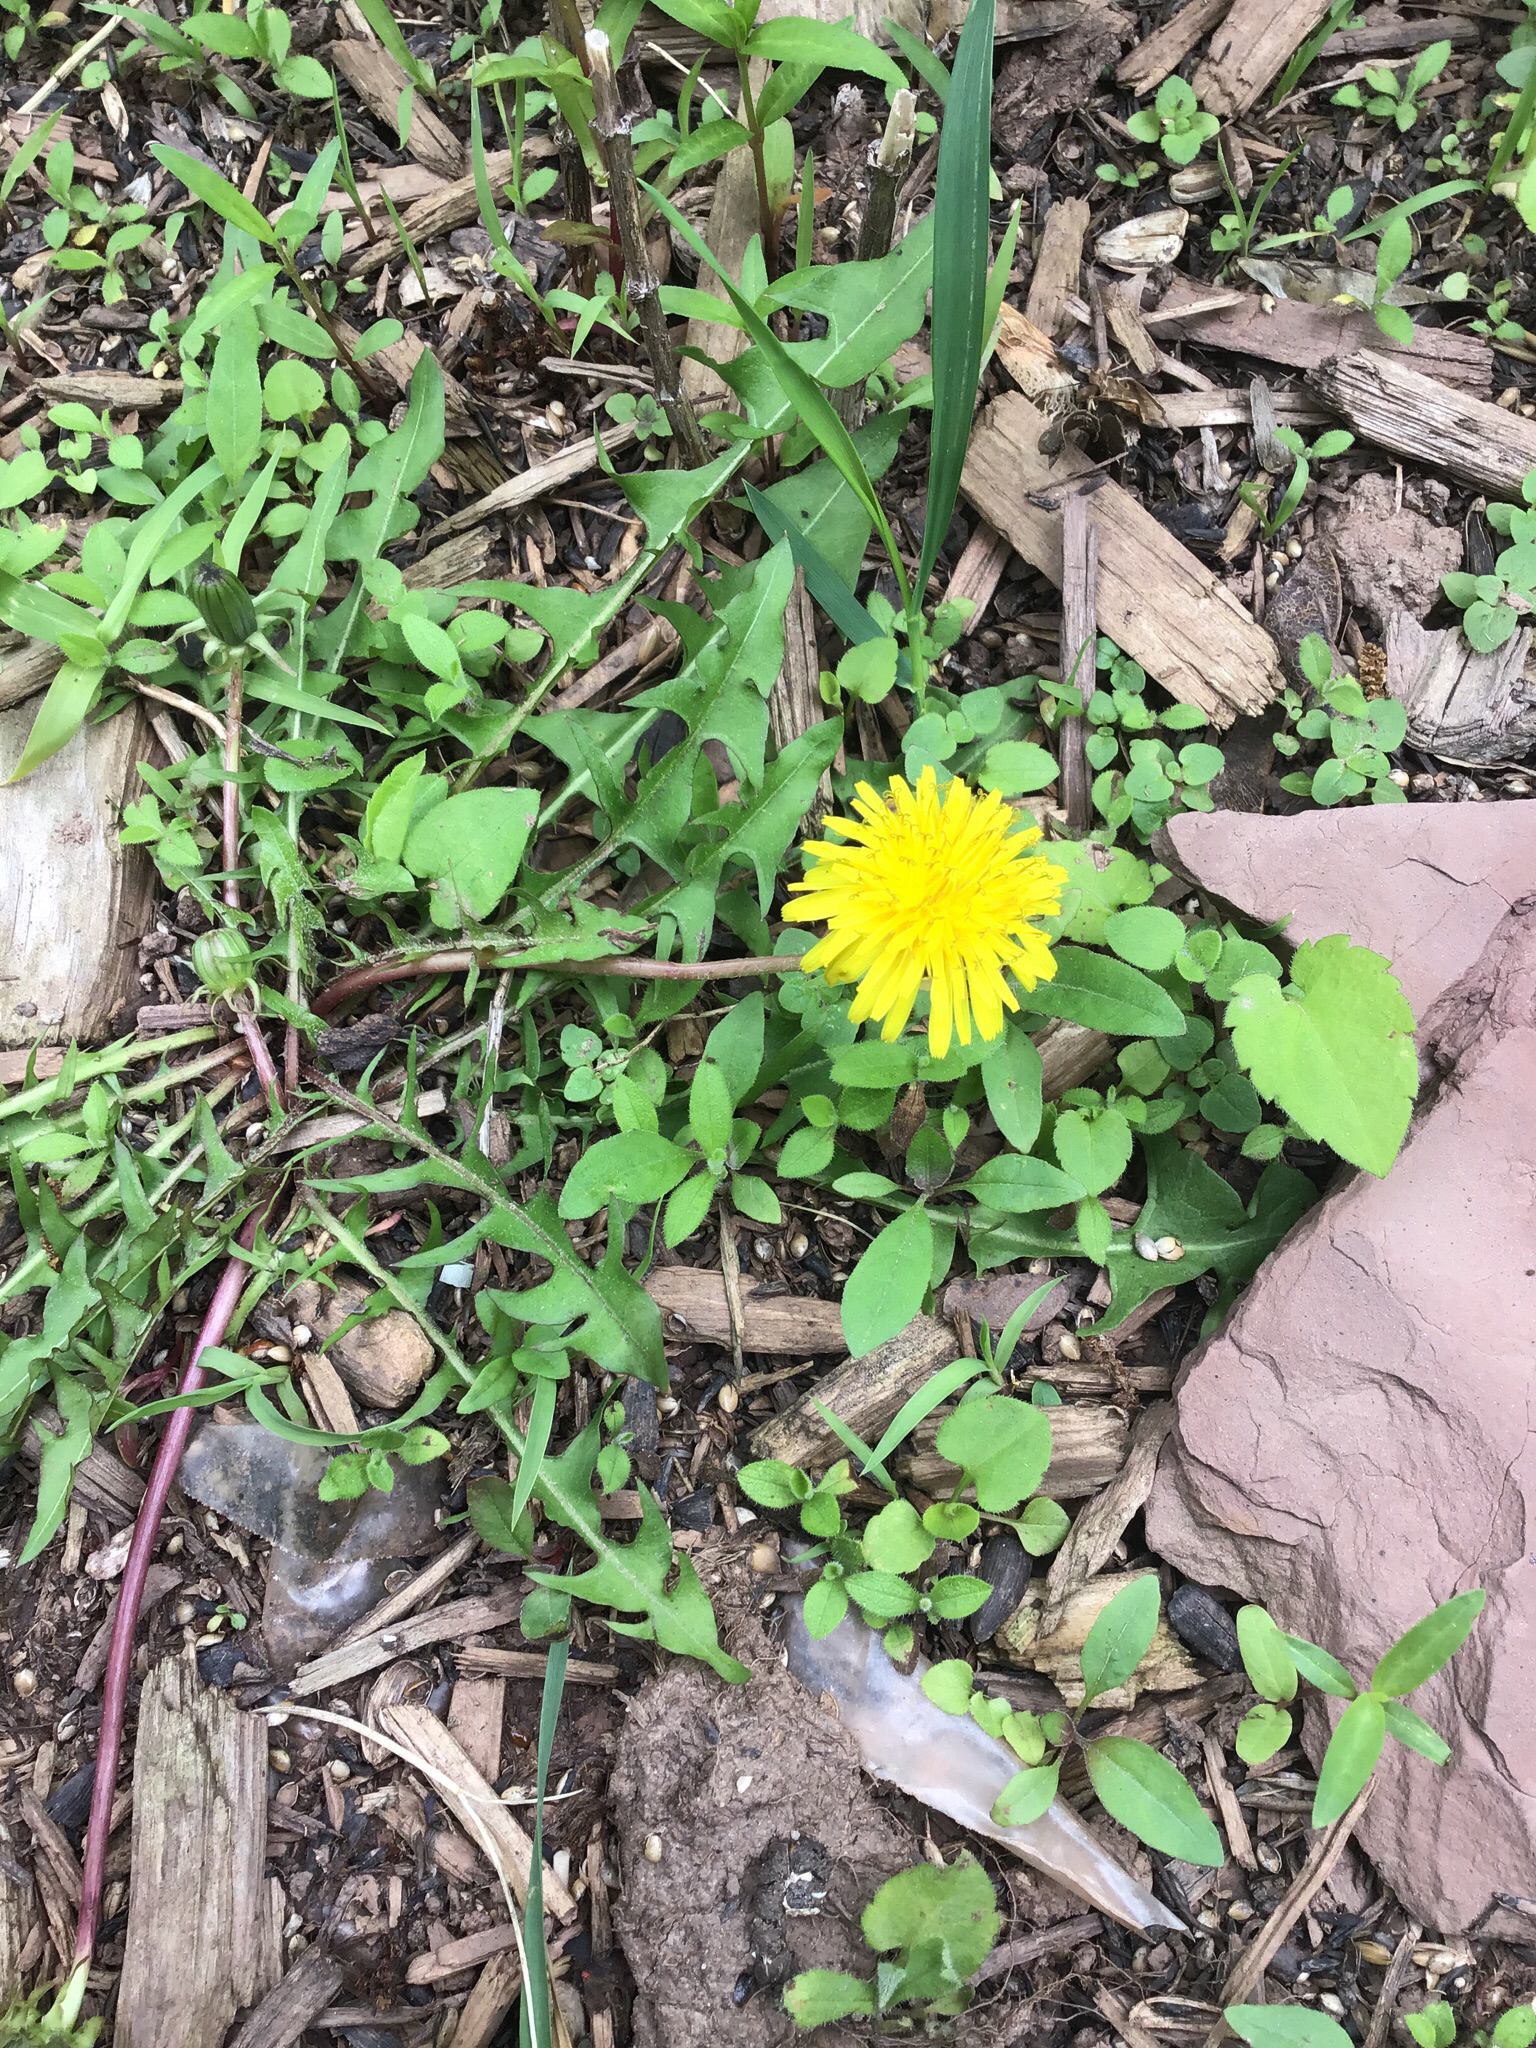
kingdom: Plantae
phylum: Tracheophyta
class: Magnoliopsida
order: Asterales
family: Asteraceae
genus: Taraxacum
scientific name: Taraxacum officinale
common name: Common dandelion
